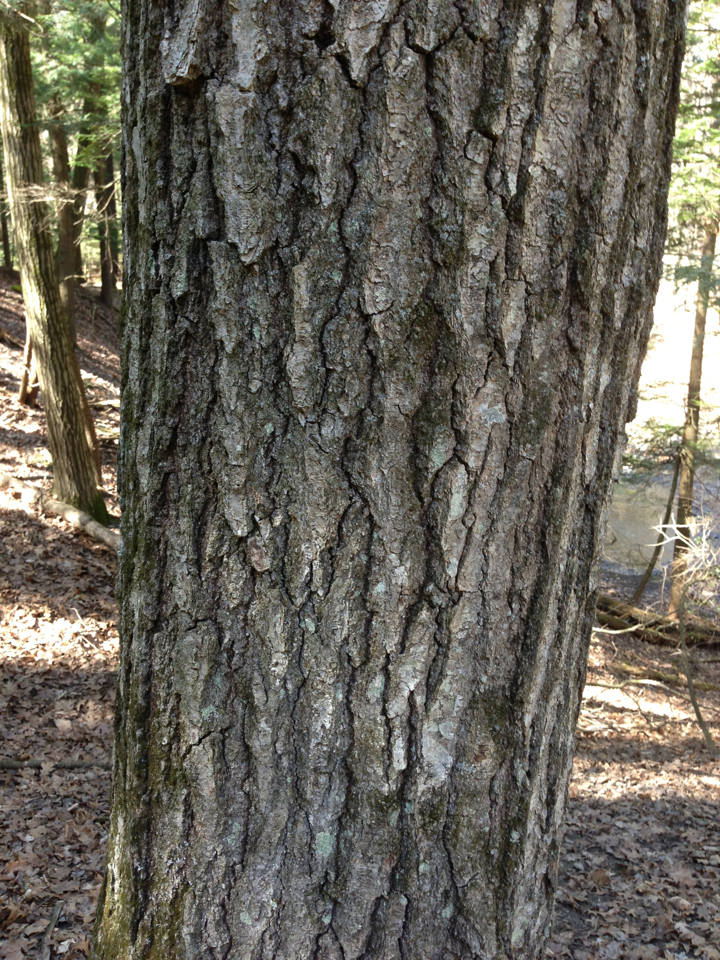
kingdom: Plantae
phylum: Tracheophyta
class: Magnoliopsida
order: Fagales
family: Fagaceae
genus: Quercus
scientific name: Quercus rubra
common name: Red oak
